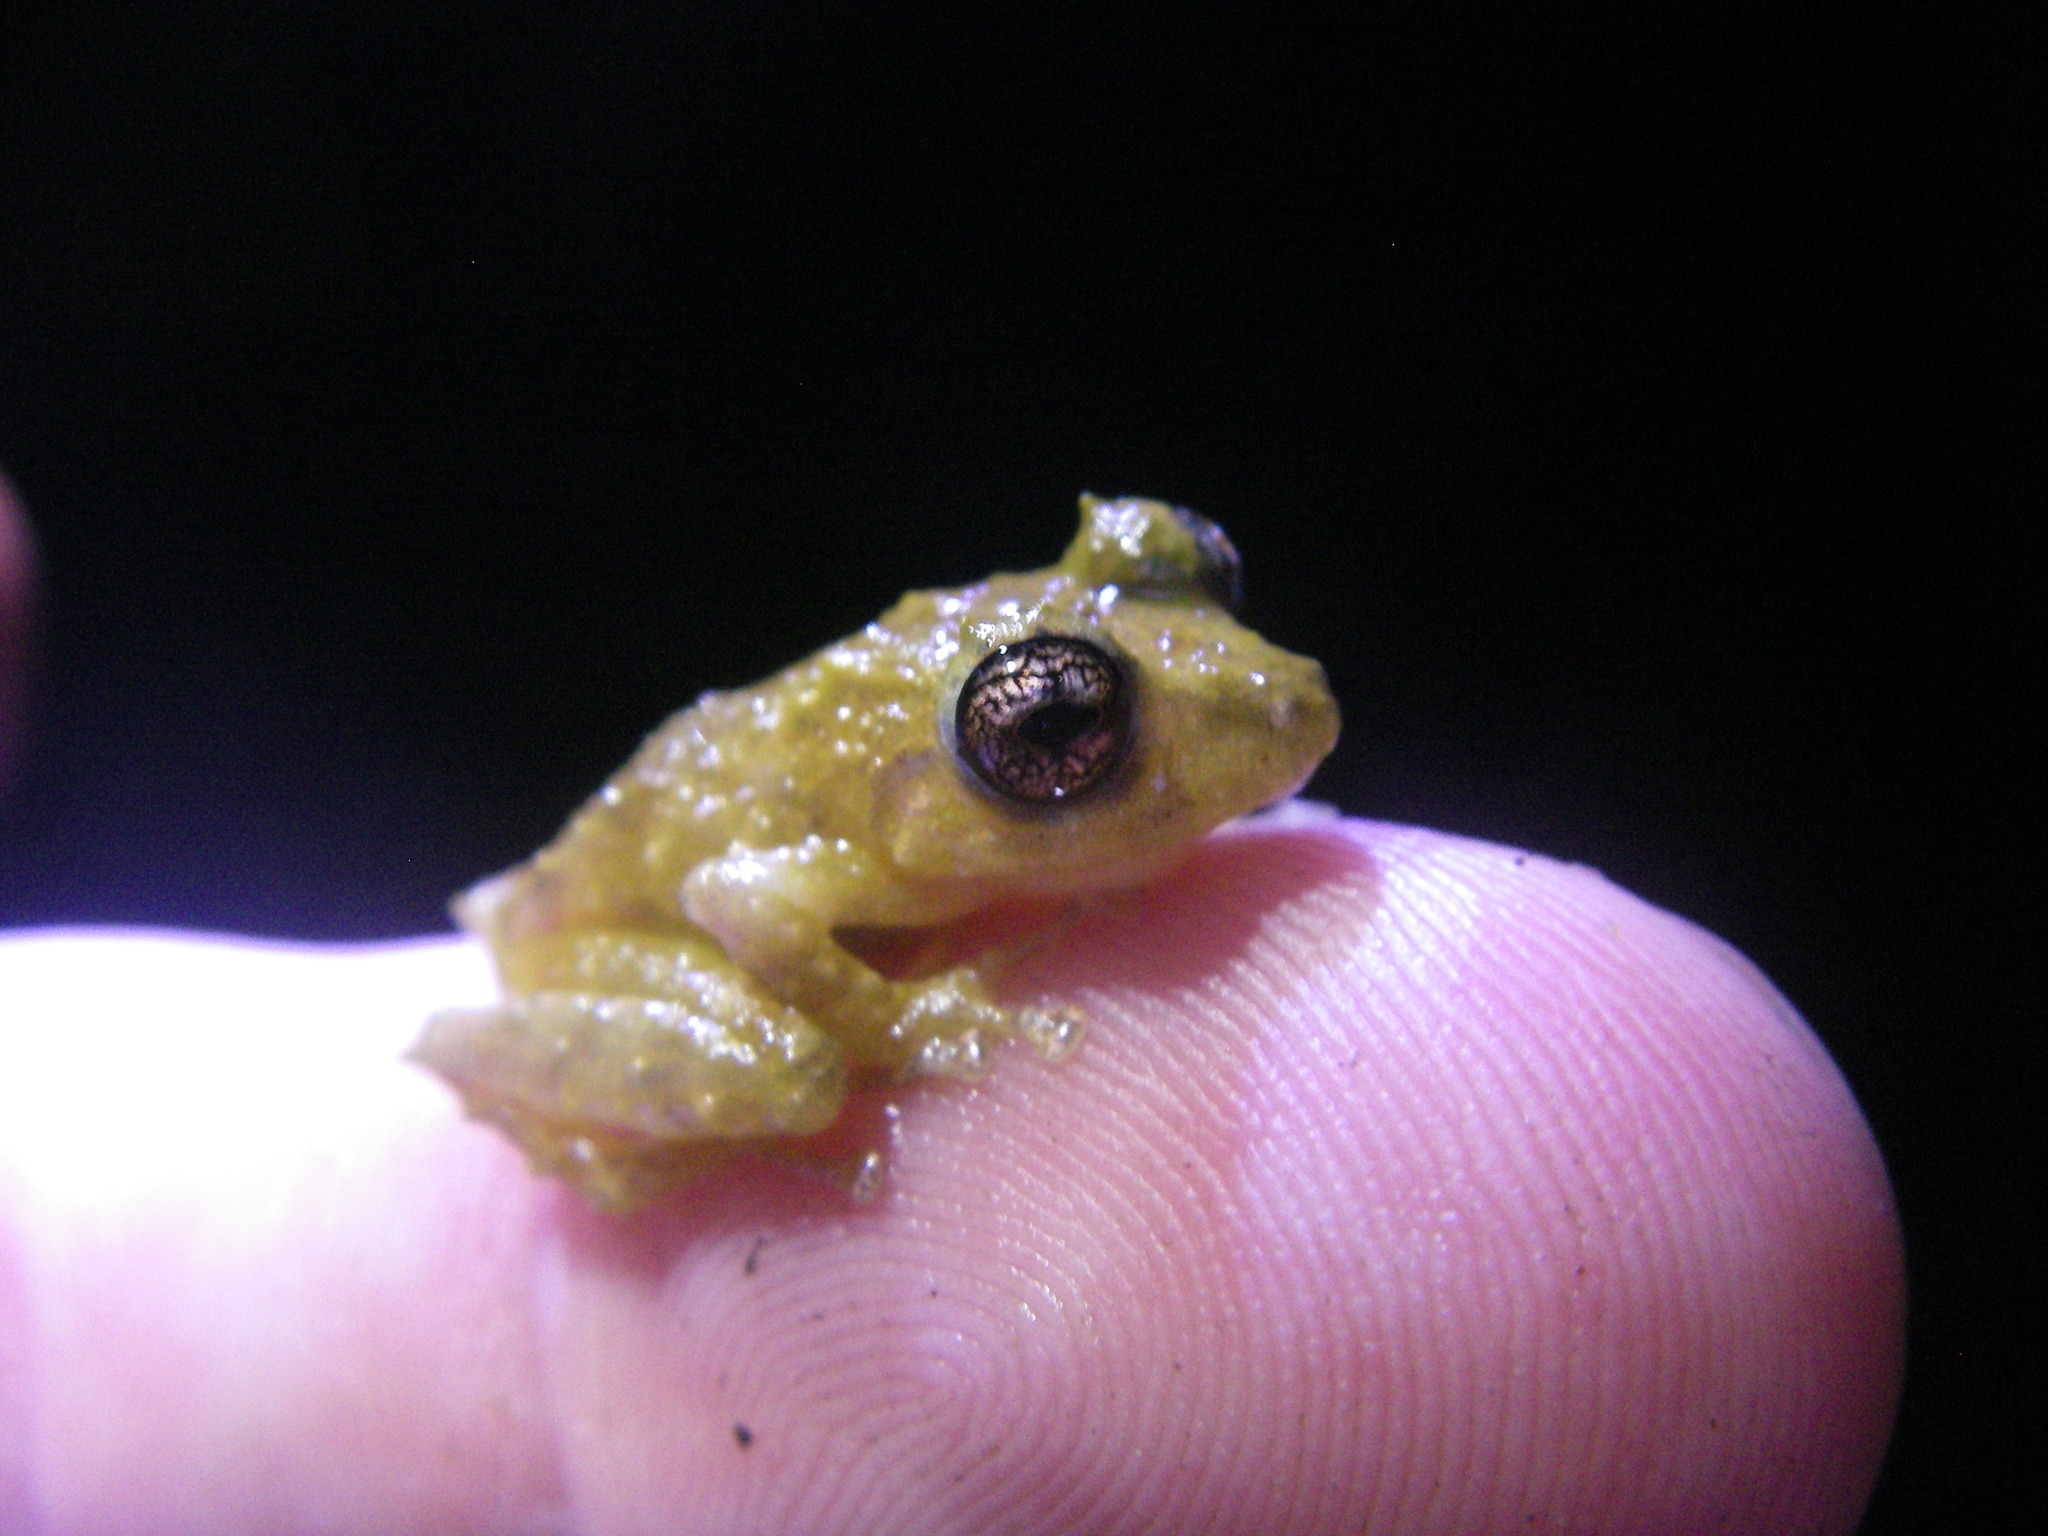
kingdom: Animalia
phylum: Chordata
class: Amphibia
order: Anura
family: Craugastoridae
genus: Pristimantis
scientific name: Pristimantis cruentus
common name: Chiriqui robber frog
